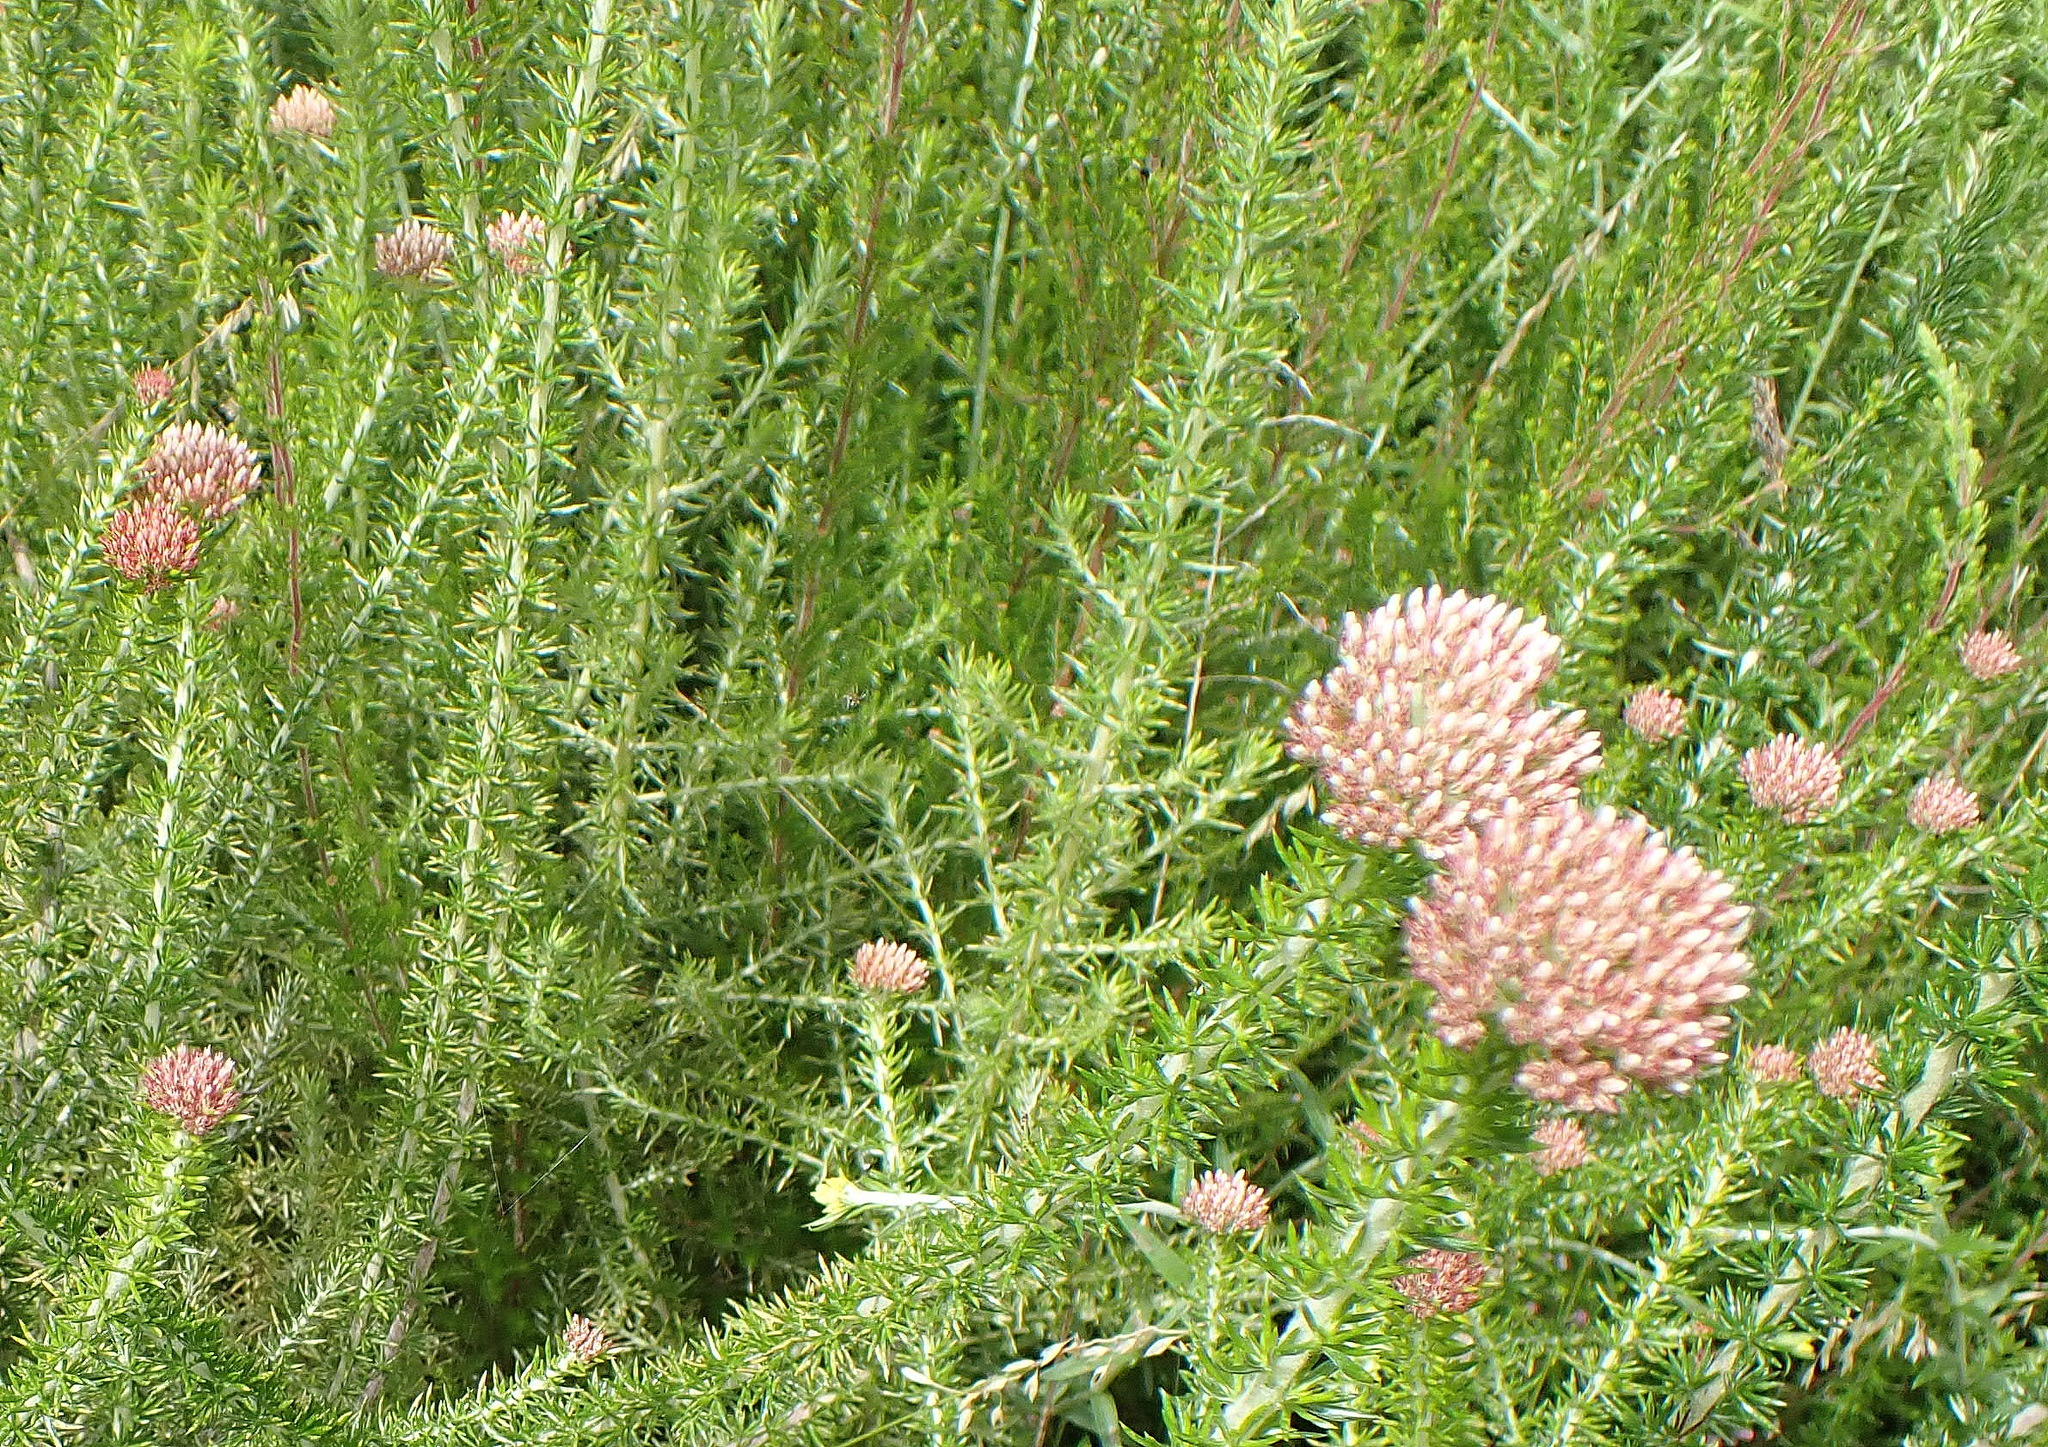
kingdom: Plantae
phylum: Tracheophyta
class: Magnoliopsida
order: Asterales
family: Asteraceae
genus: Metalasia
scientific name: Metalasia trivialis
